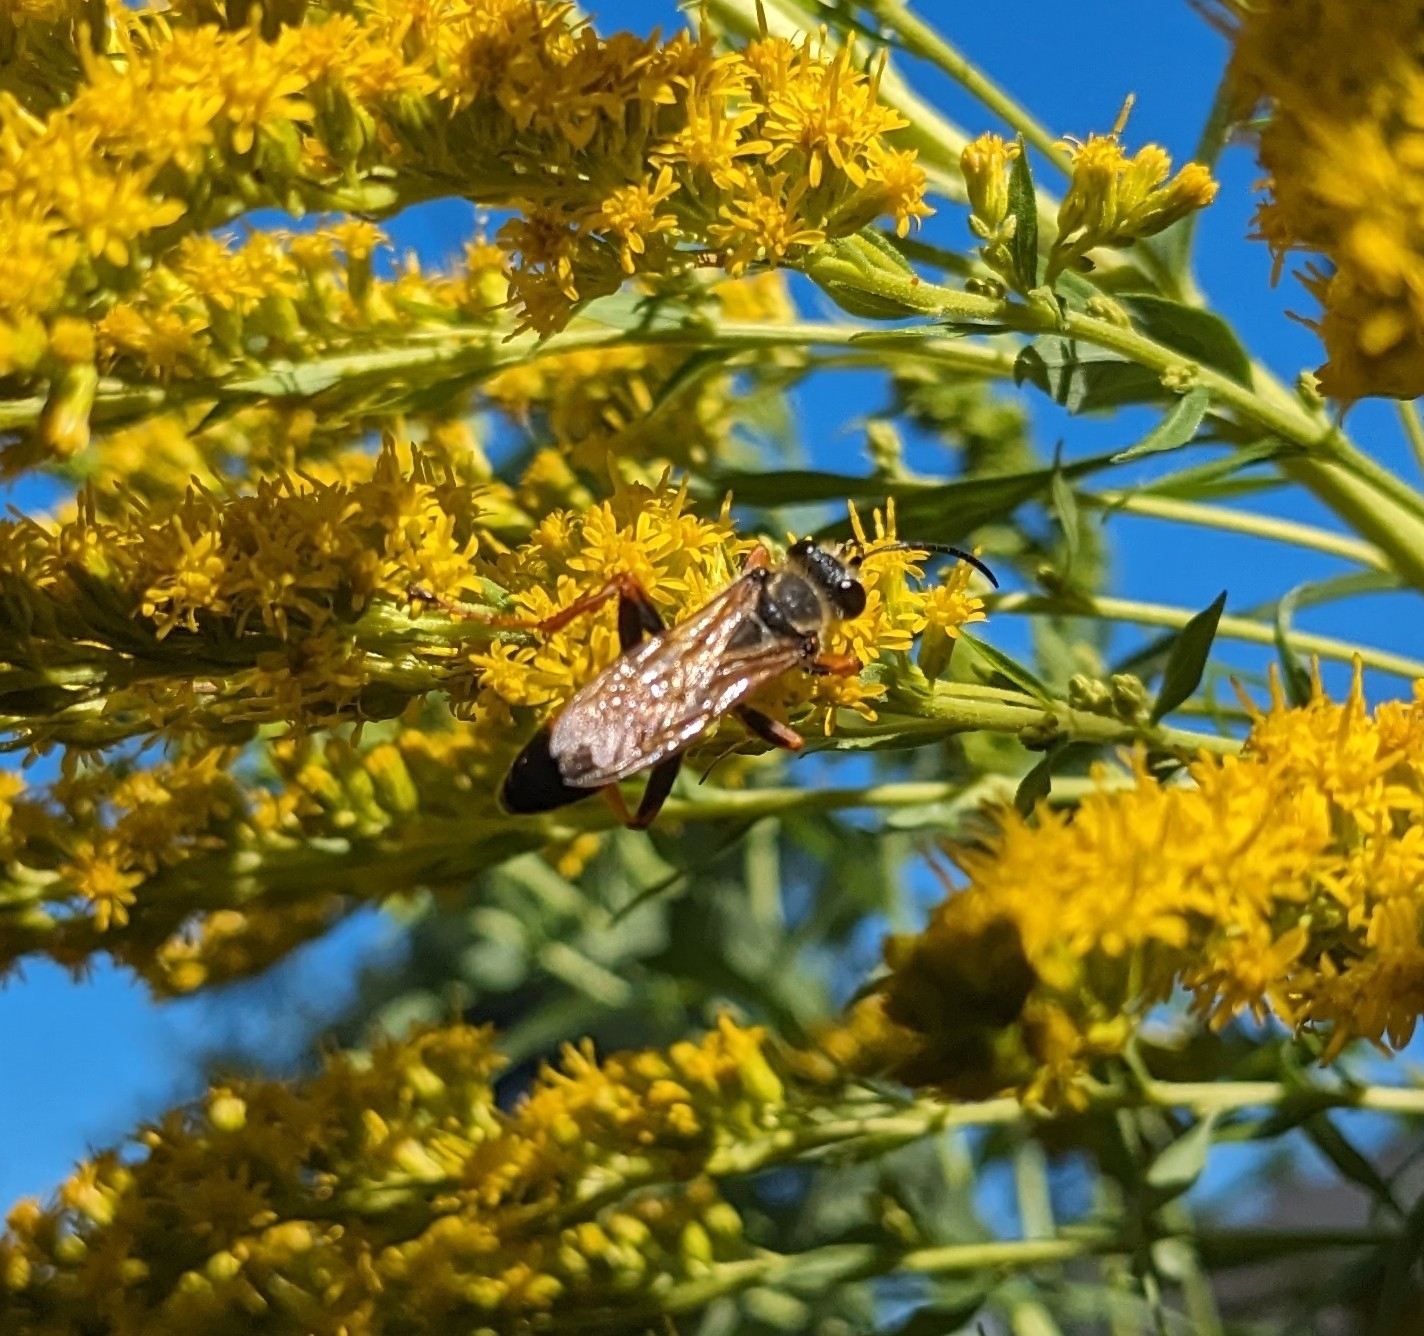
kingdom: Animalia
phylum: Arthropoda
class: Insecta
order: Hymenoptera
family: Sphecidae
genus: Sphex
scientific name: Sphex ichneumoneus
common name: Great golden digger wasp
